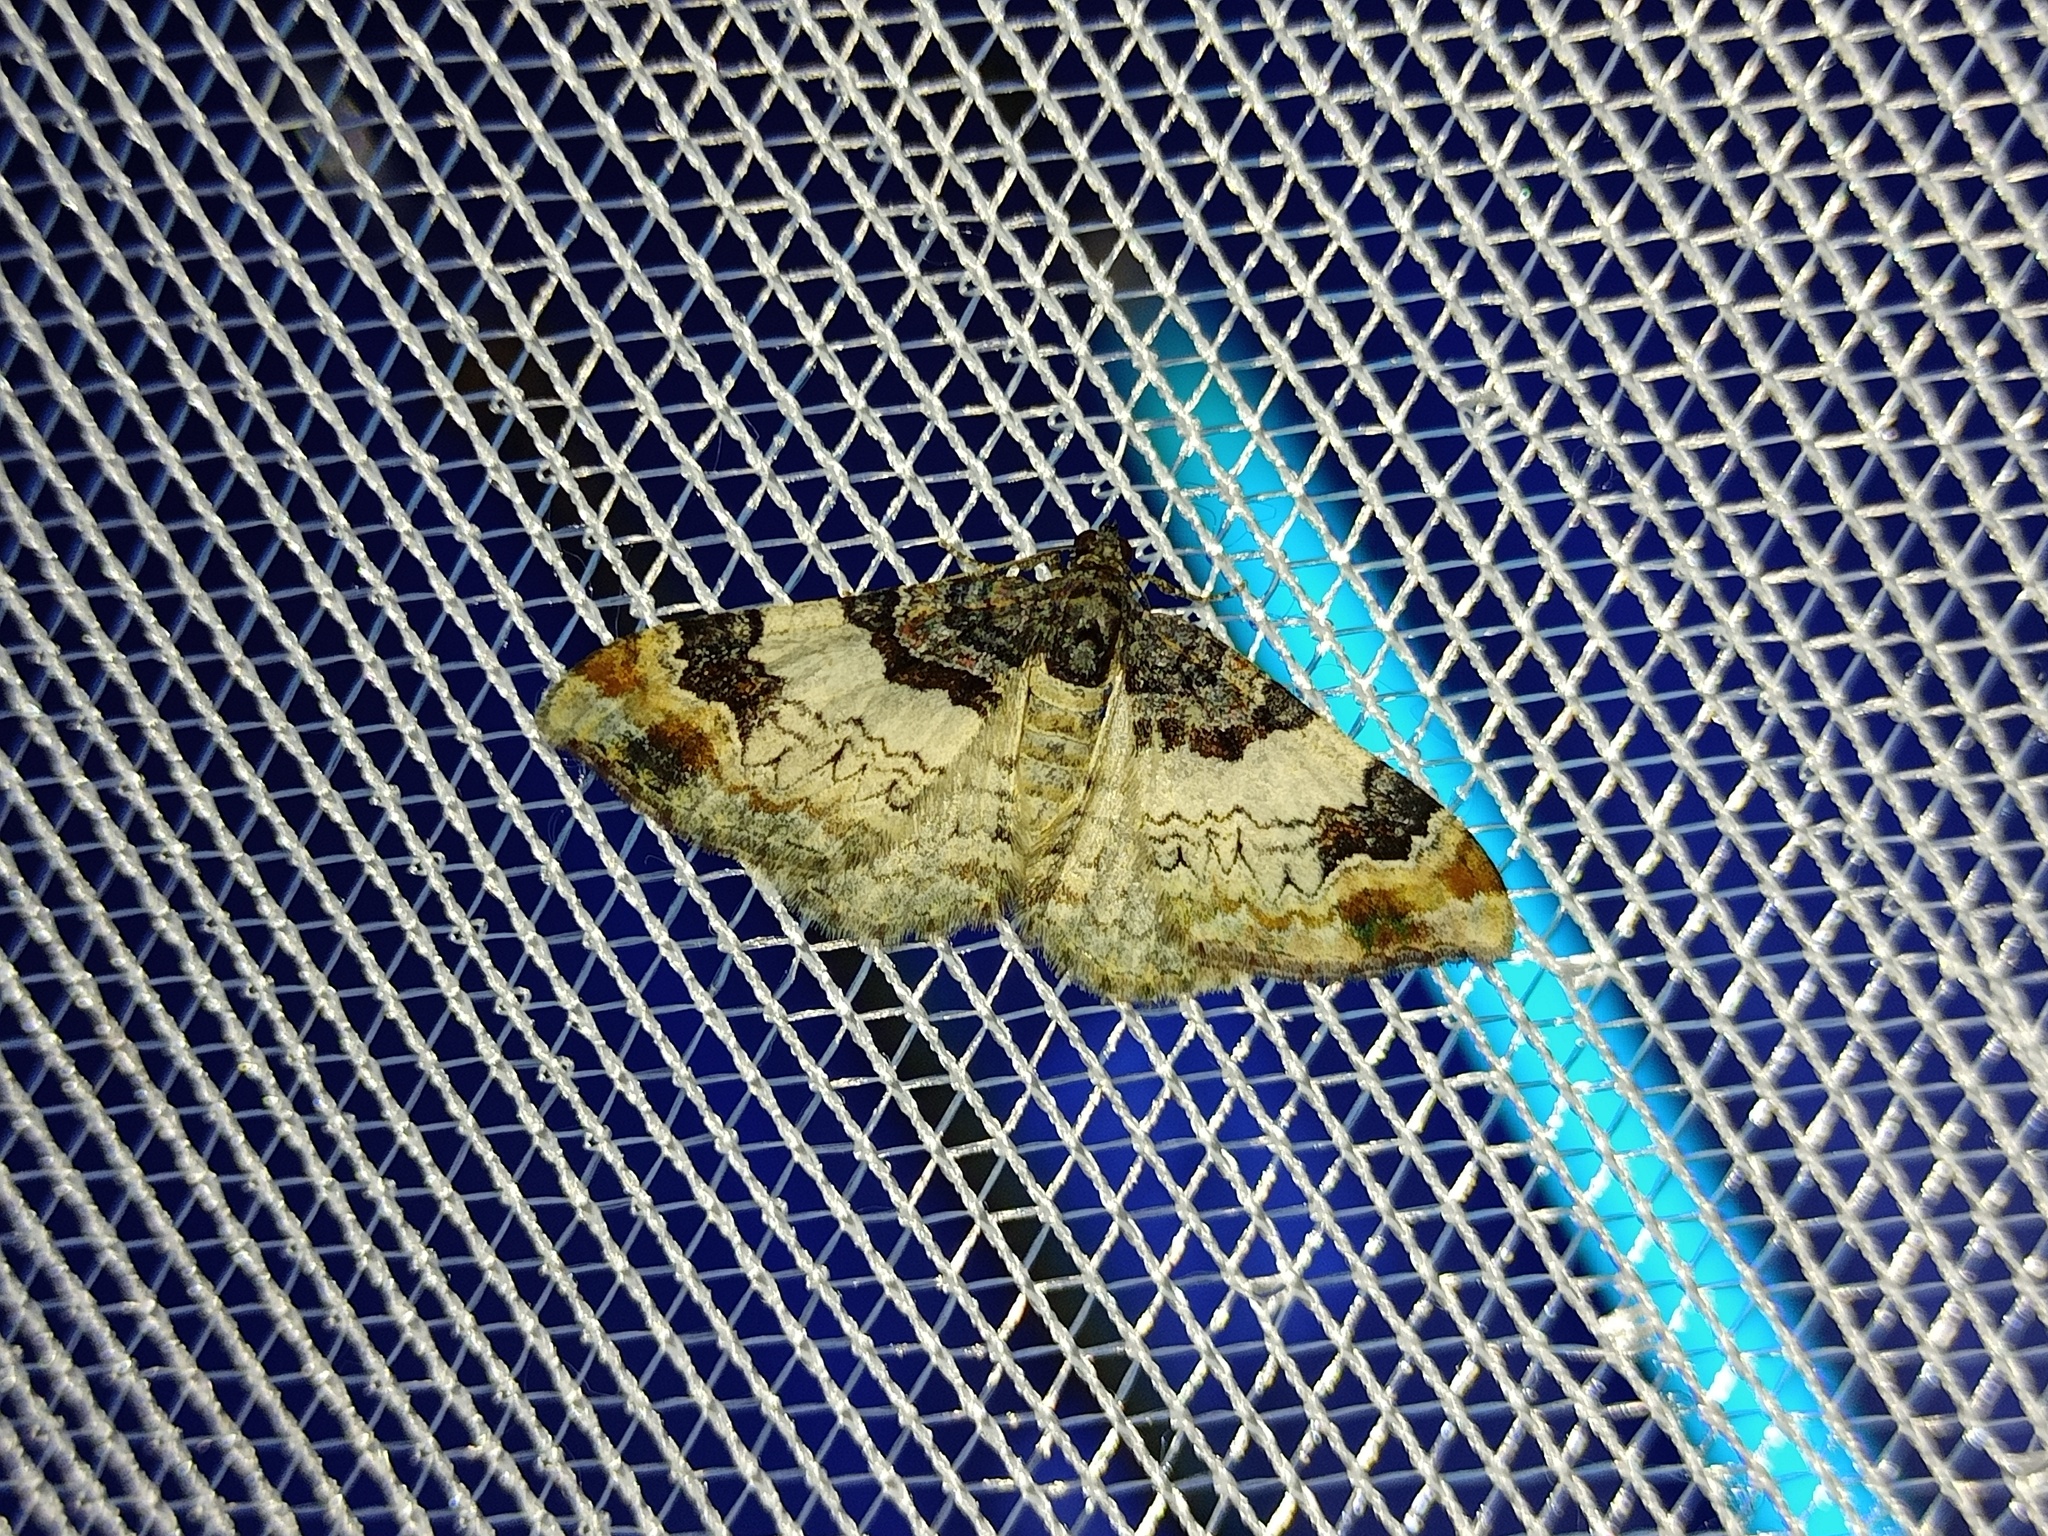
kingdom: Animalia
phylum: Arthropoda
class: Insecta
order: Lepidoptera
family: Geometridae
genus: Catarhoe
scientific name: Catarhoe cuculata
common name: Royal mantle
